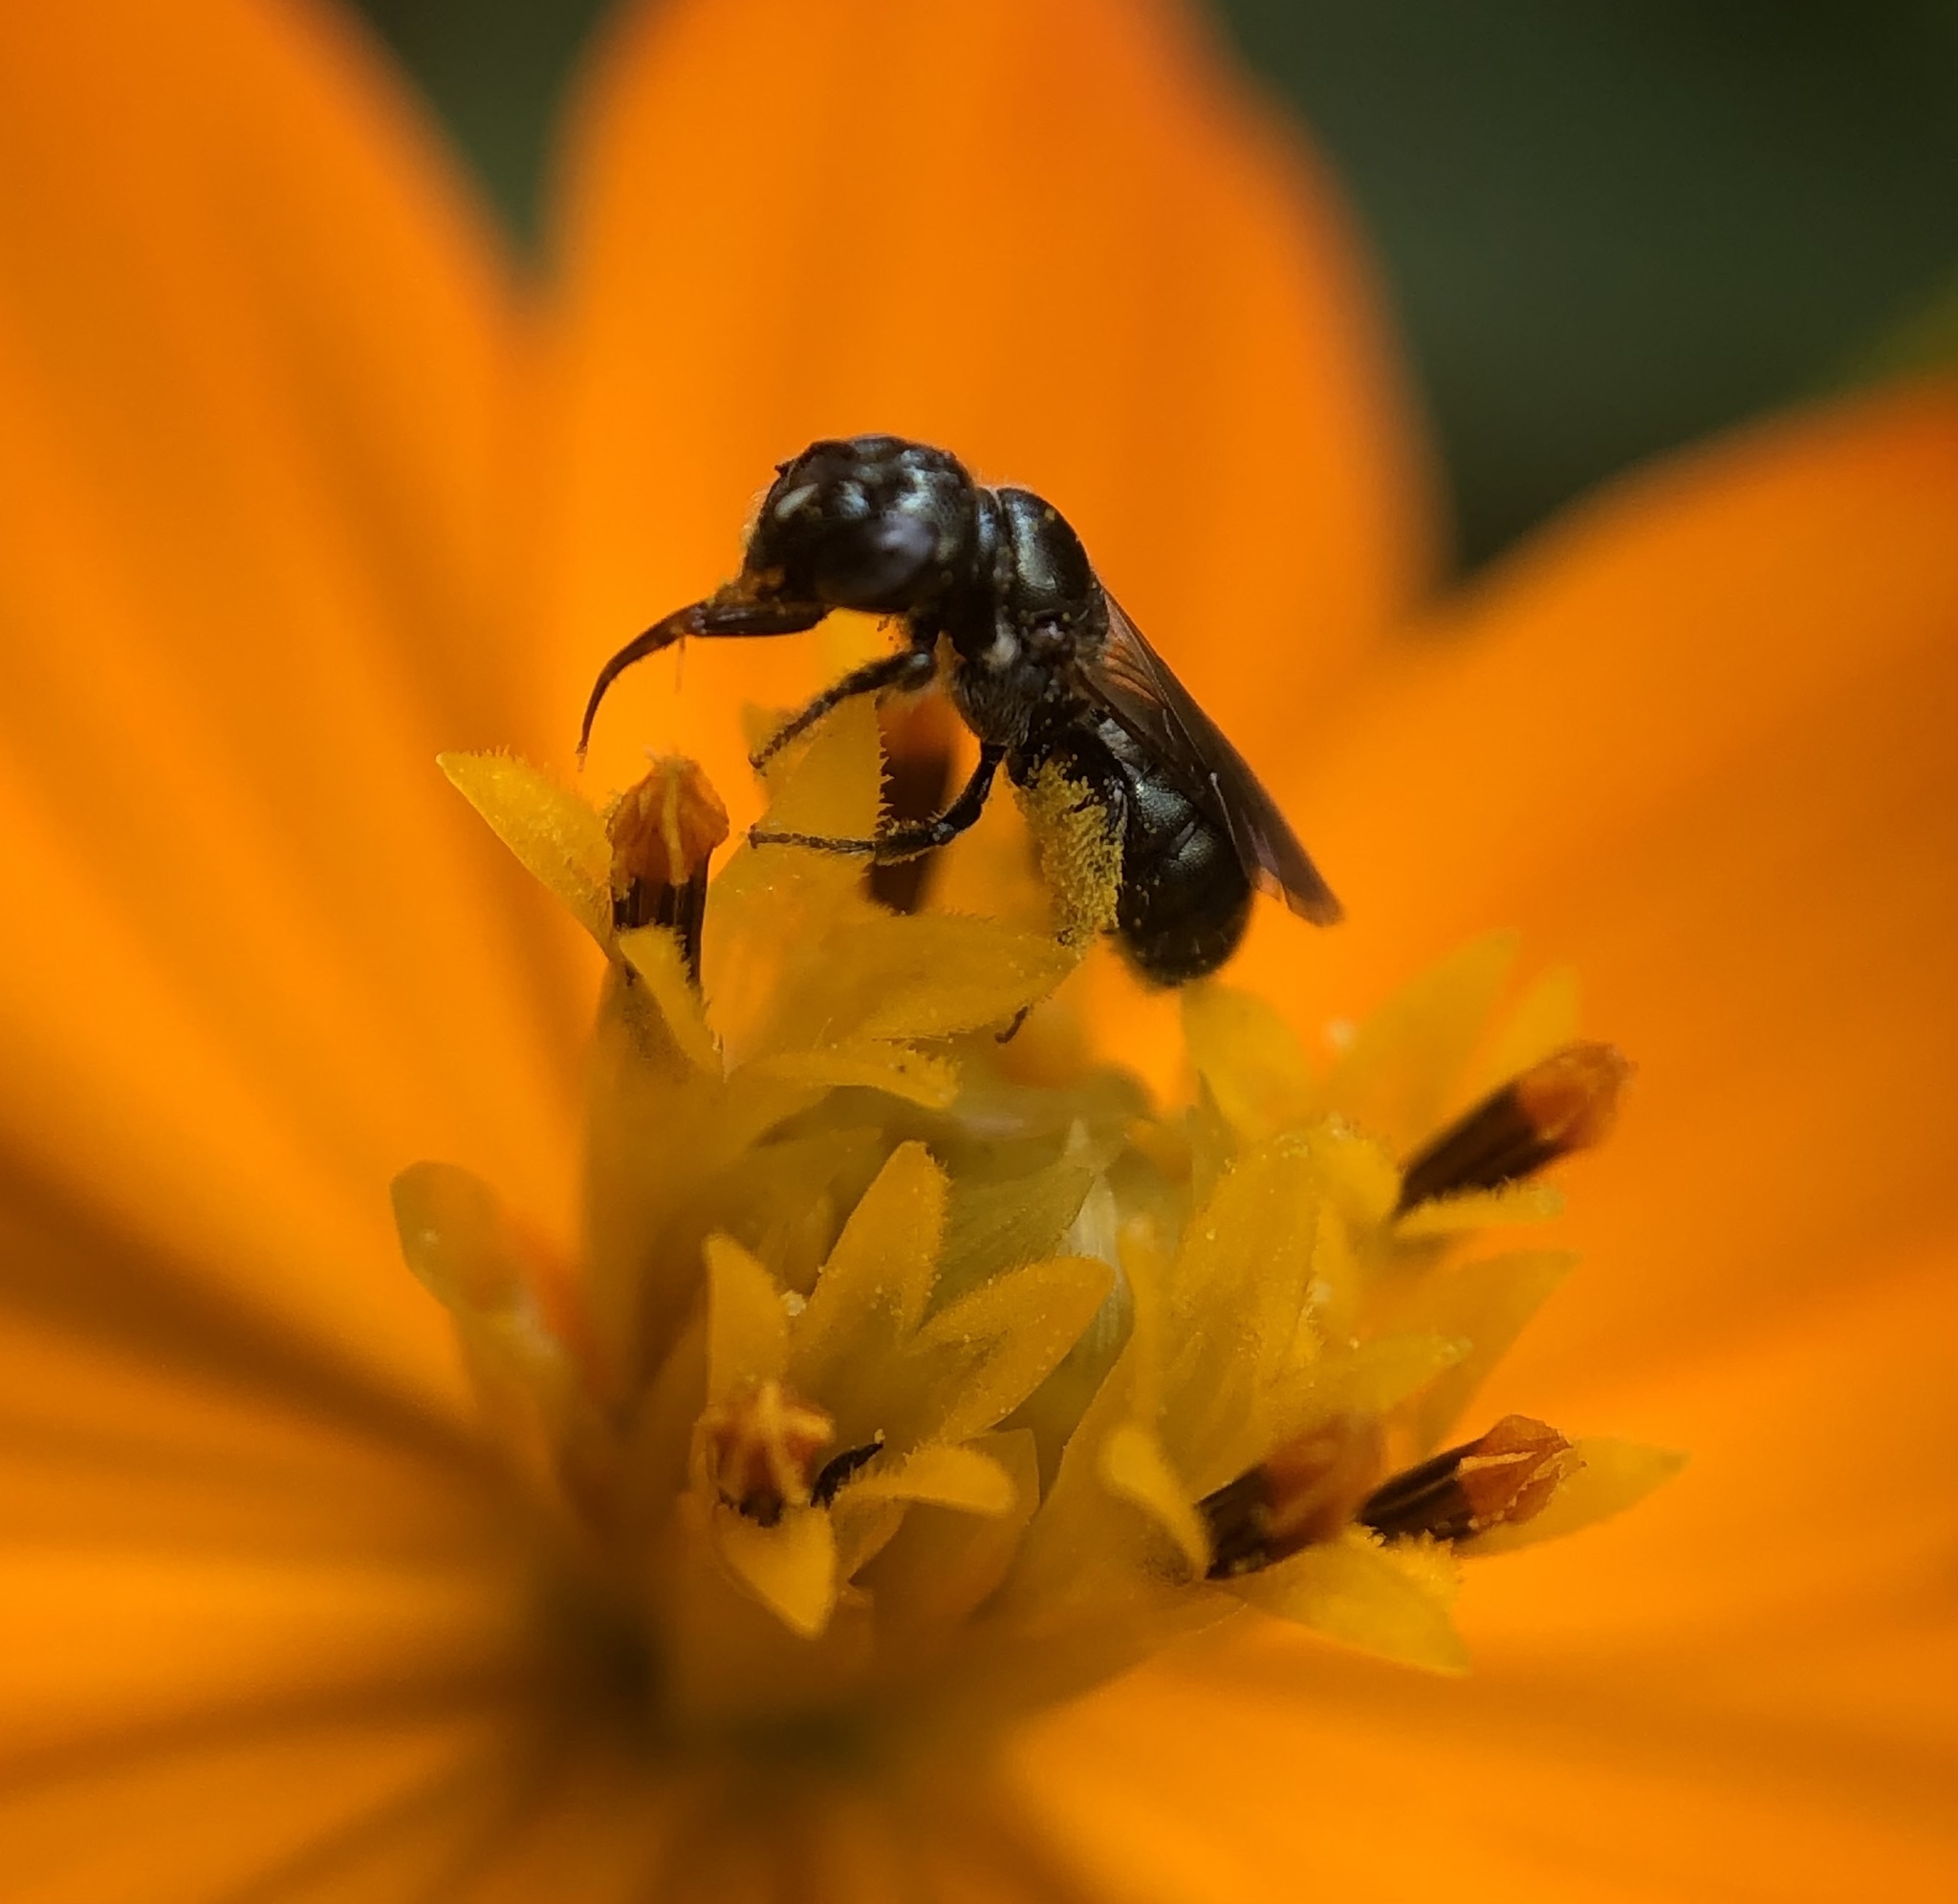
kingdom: Animalia
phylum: Arthropoda
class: Insecta
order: Hymenoptera
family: Apidae
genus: Ceratina
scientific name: Ceratina strenua
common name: Nimble carpenter bee
